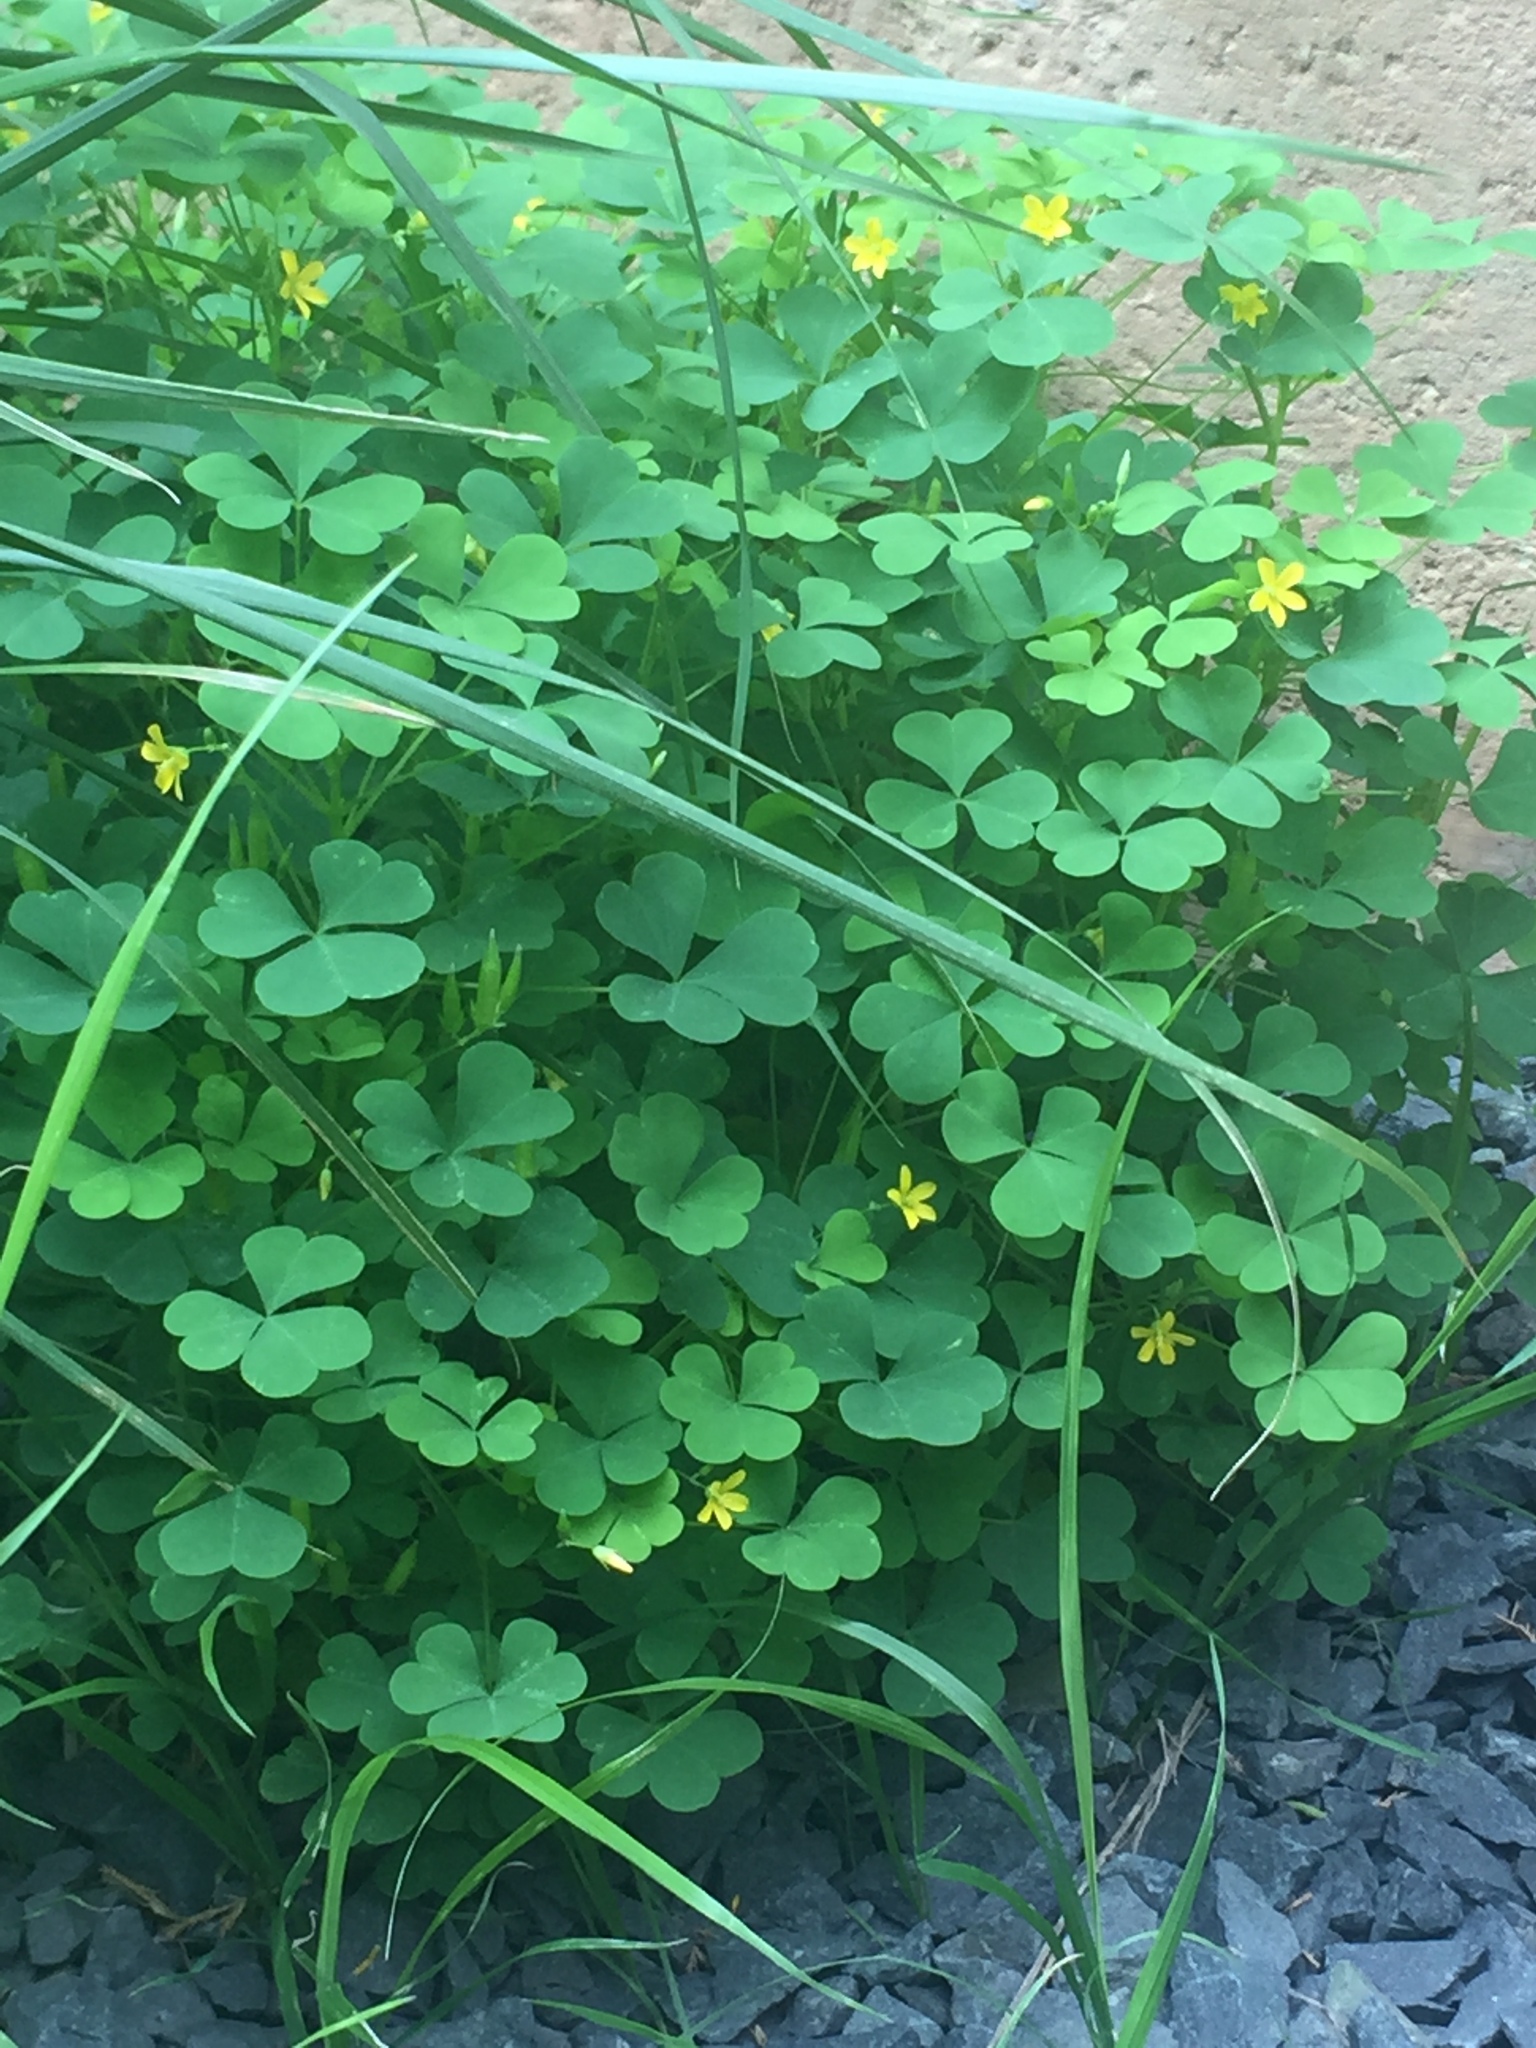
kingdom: Plantae
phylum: Tracheophyta
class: Magnoliopsida
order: Oxalidales
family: Oxalidaceae
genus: Oxalis
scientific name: Oxalis stricta
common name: Upright yellow-sorrel
